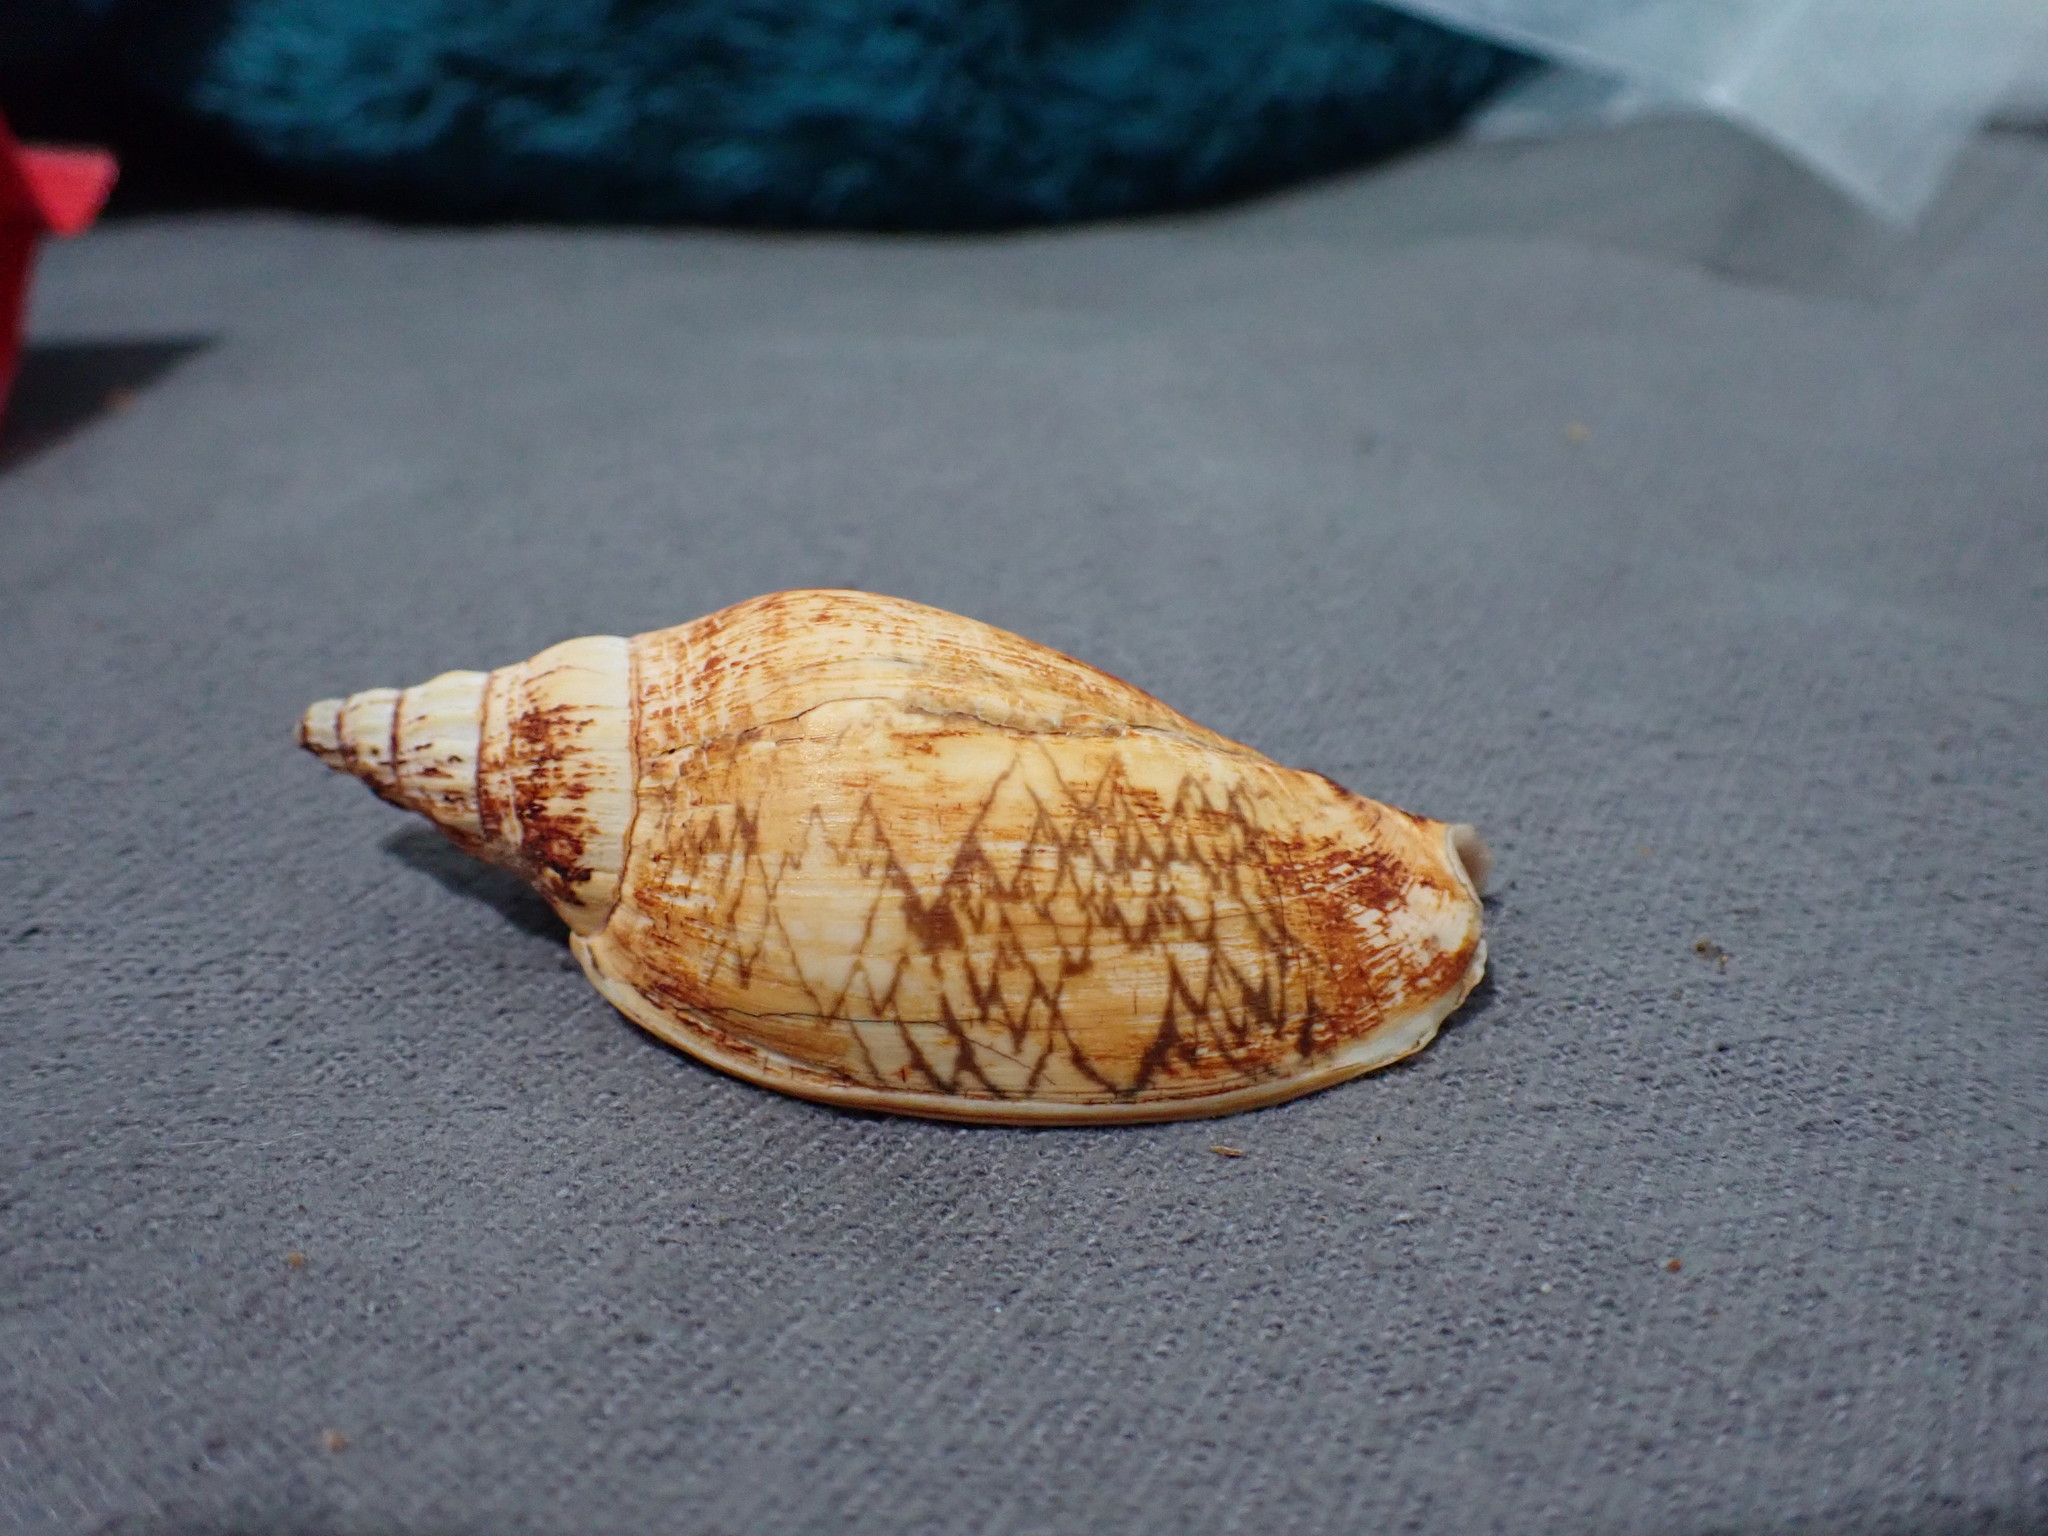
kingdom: Animalia
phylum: Mollusca
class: Gastropoda
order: Neogastropoda
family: Volutidae
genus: Alcithoe
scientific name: Alcithoe fusus
